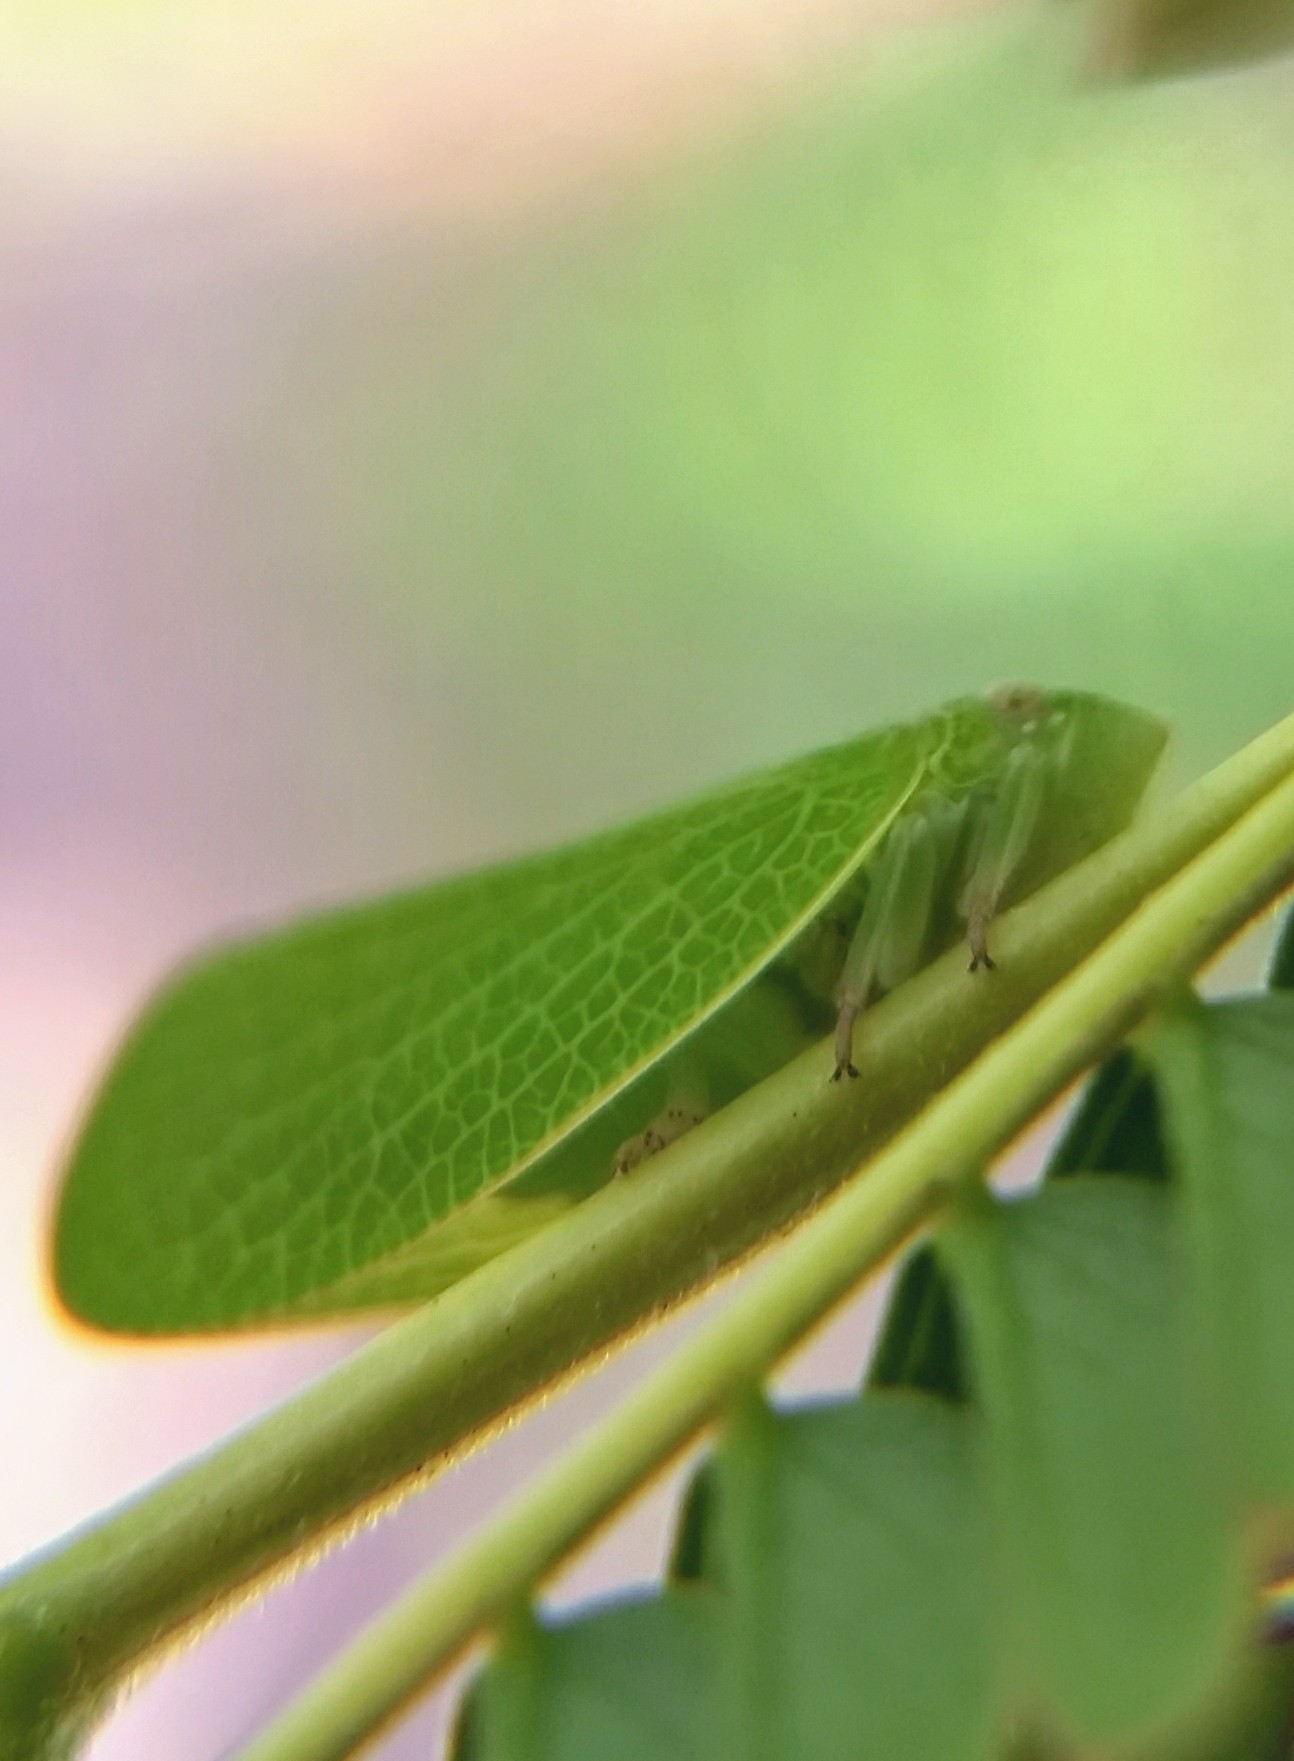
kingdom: Animalia
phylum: Arthropoda
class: Insecta
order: Hemiptera
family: Acanaloniidae
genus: Acanalonia
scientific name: Acanalonia conica
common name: Green cone-headed planthopper
